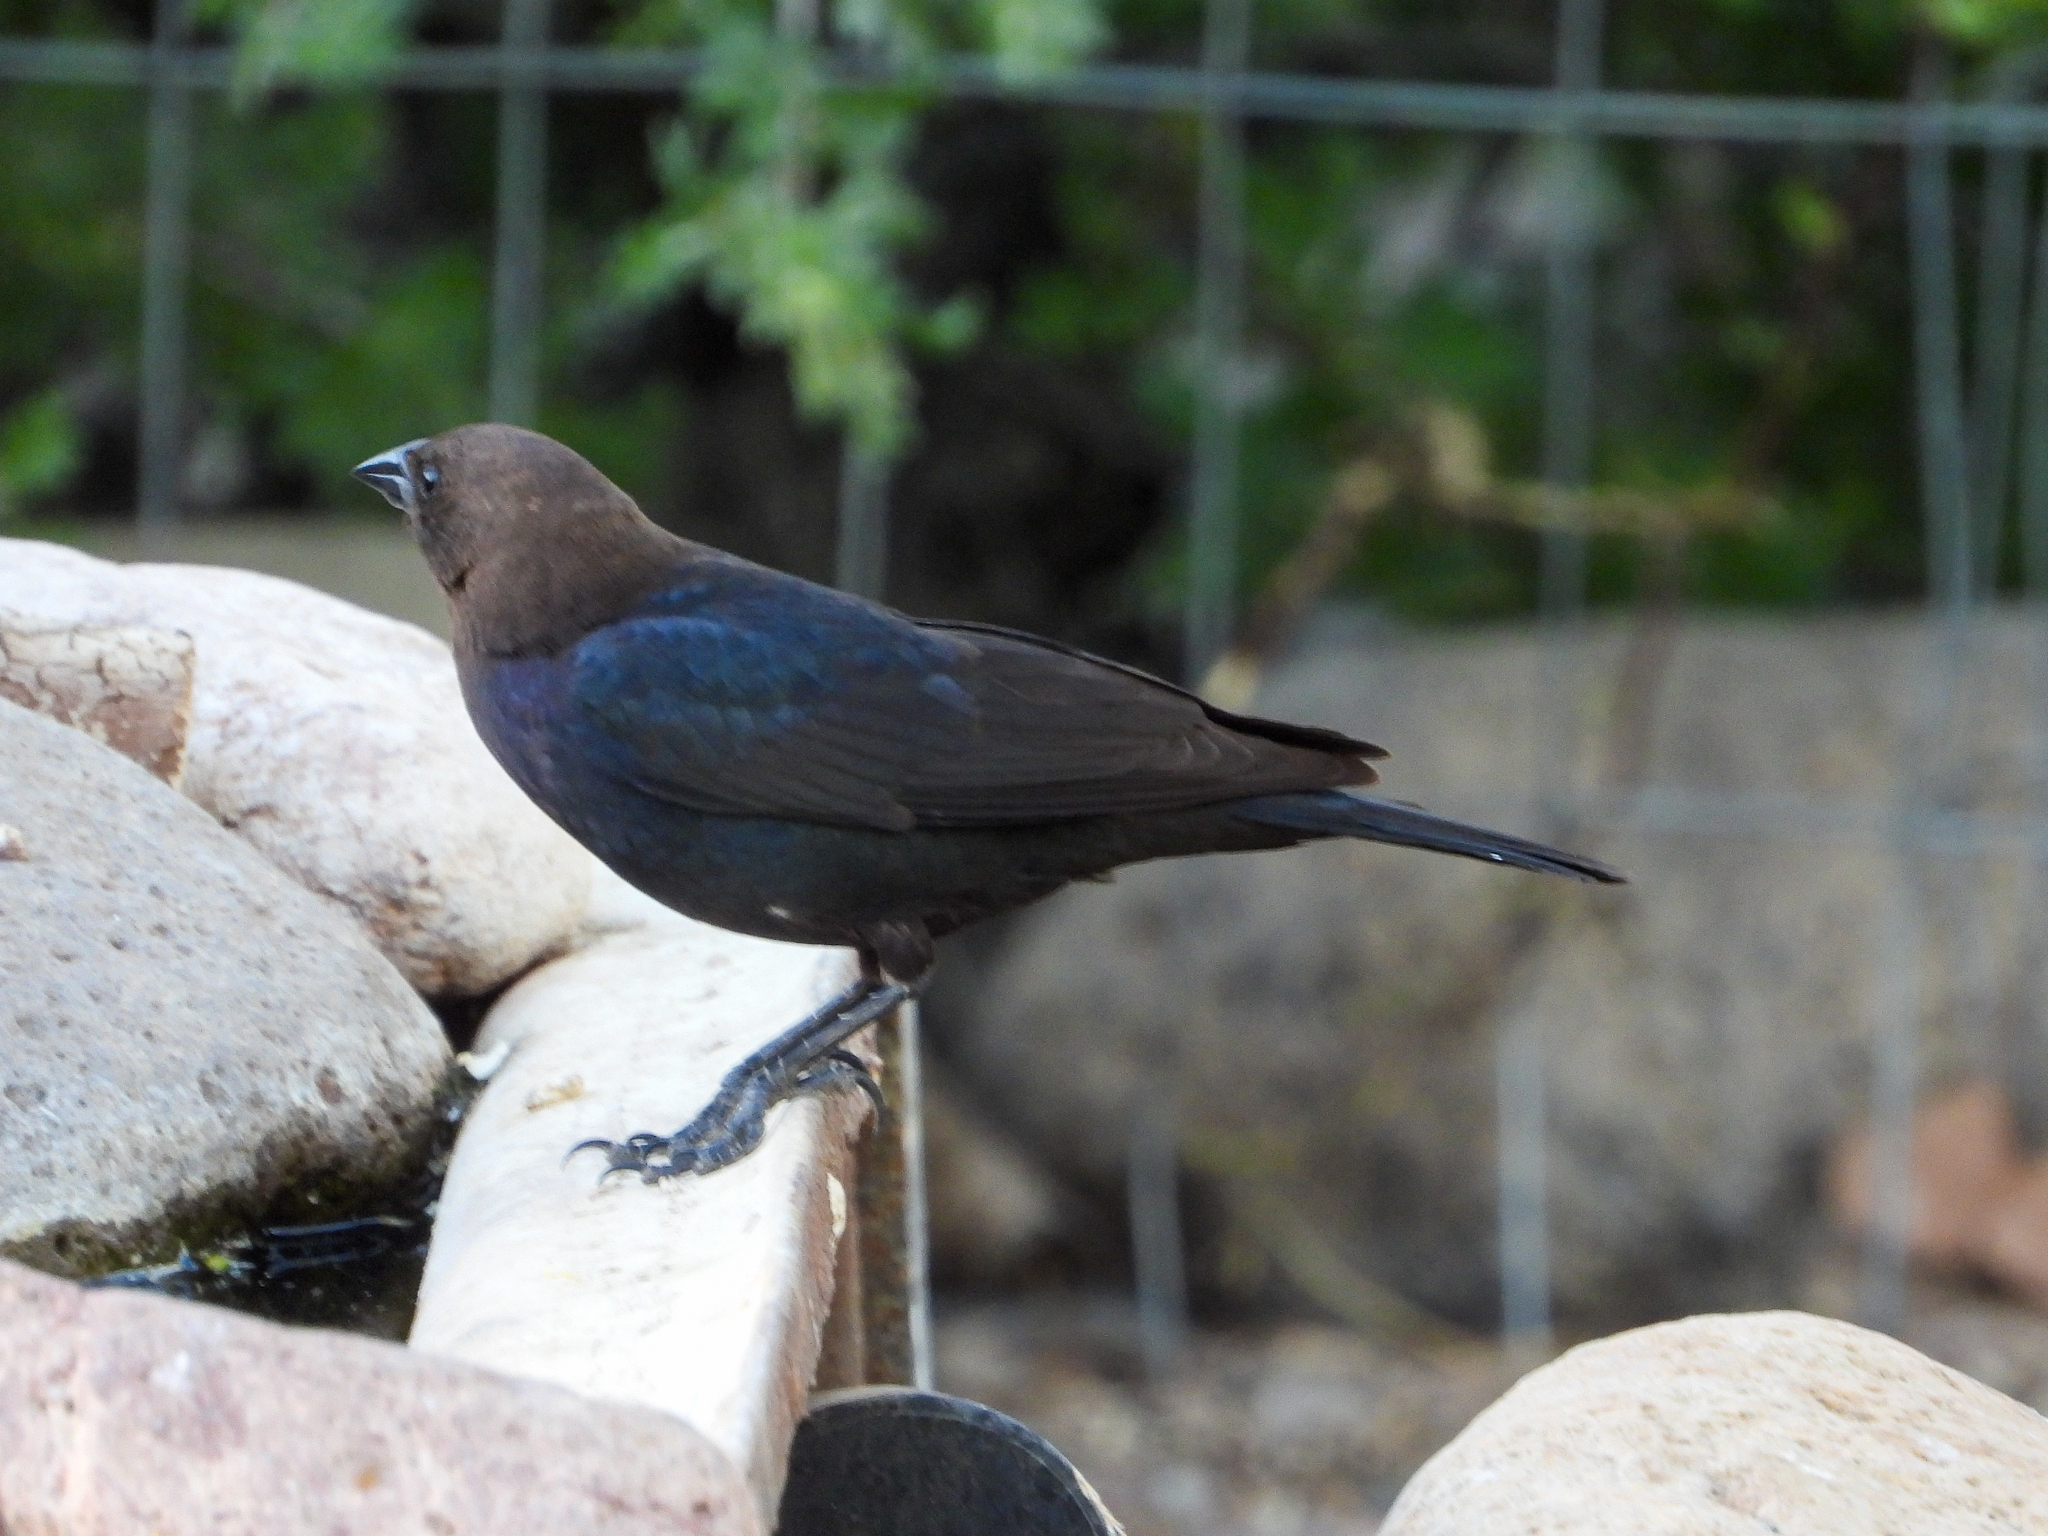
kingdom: Animalia
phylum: Chordata
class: Aves
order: Passeriformes
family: Icteridae
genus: Molothrus
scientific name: Molothrus ater
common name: Brown-headed cowbird
